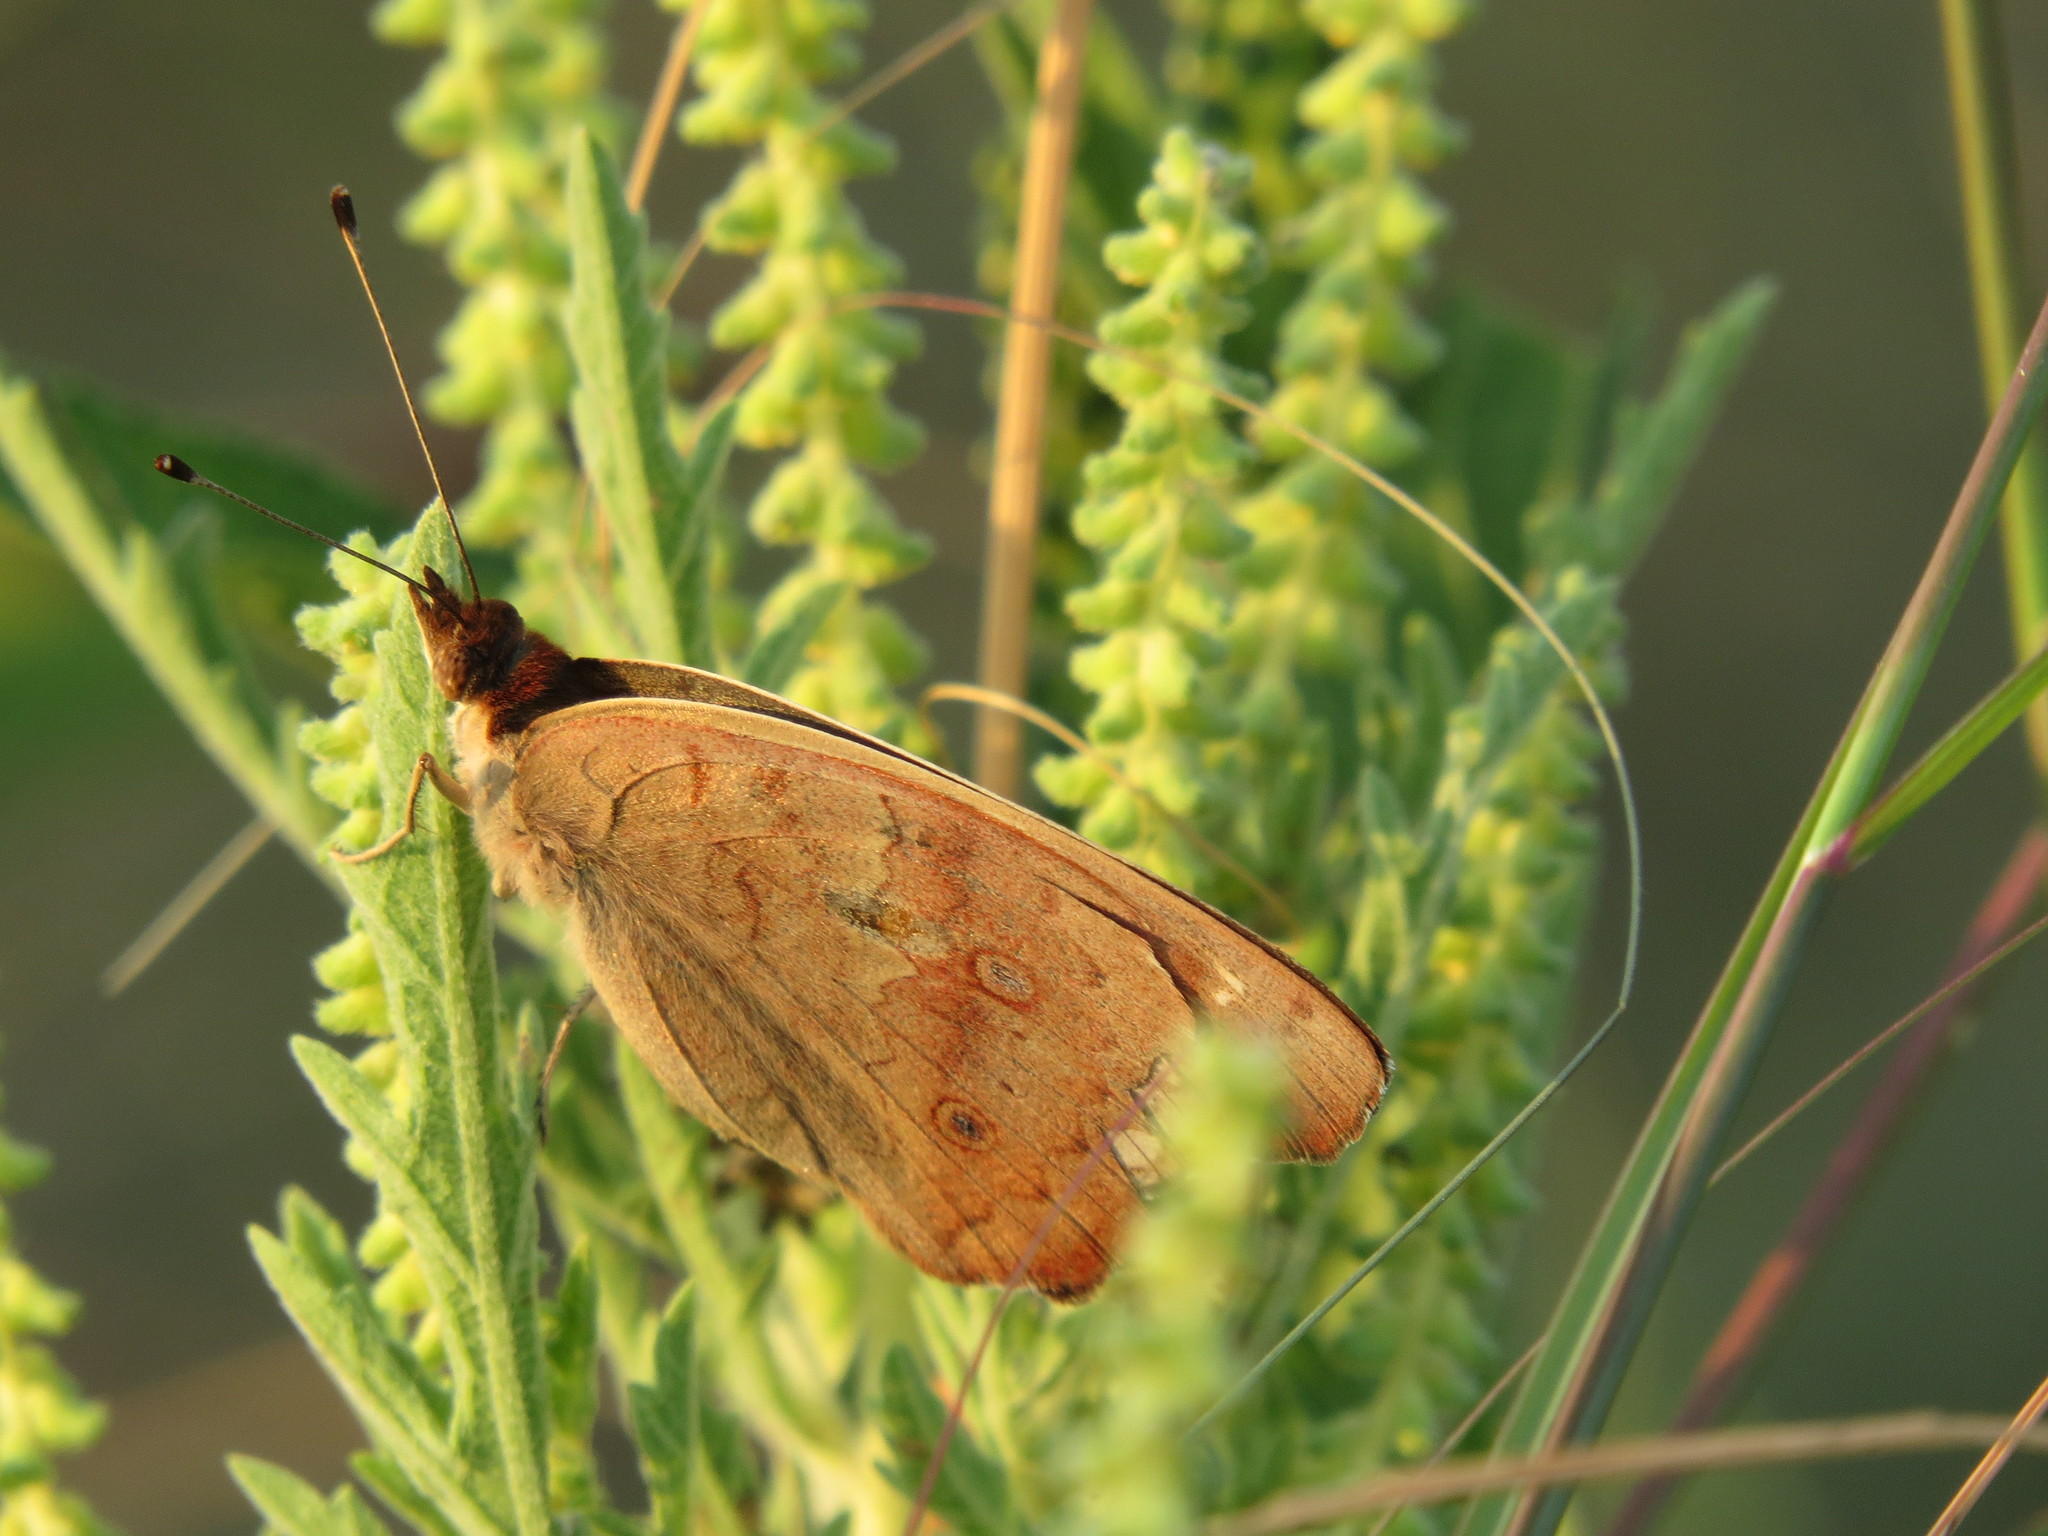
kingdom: Animalia
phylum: Arthropoda
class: Insecta
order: Lepidoptera
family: Nymphalidae
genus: Junonia
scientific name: Junonia coenia
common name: Common buckeye
